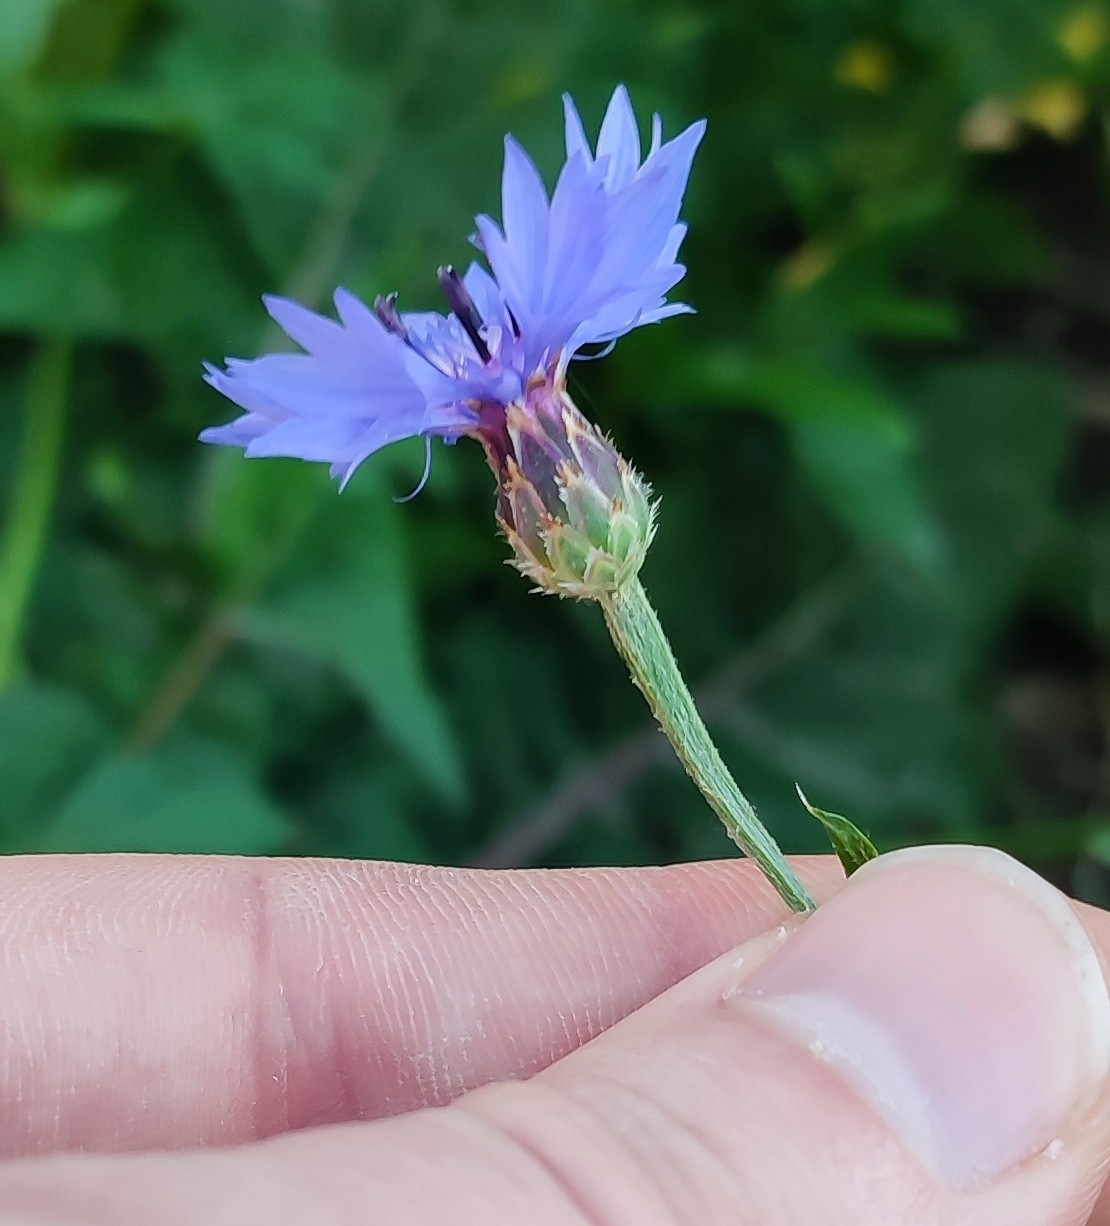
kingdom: Plantae
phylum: Tracheophyta
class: Magnoliopsida
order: Asterales
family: Asteraceae
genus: Centaurea
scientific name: Centaurea cyanus
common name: Cornflower
